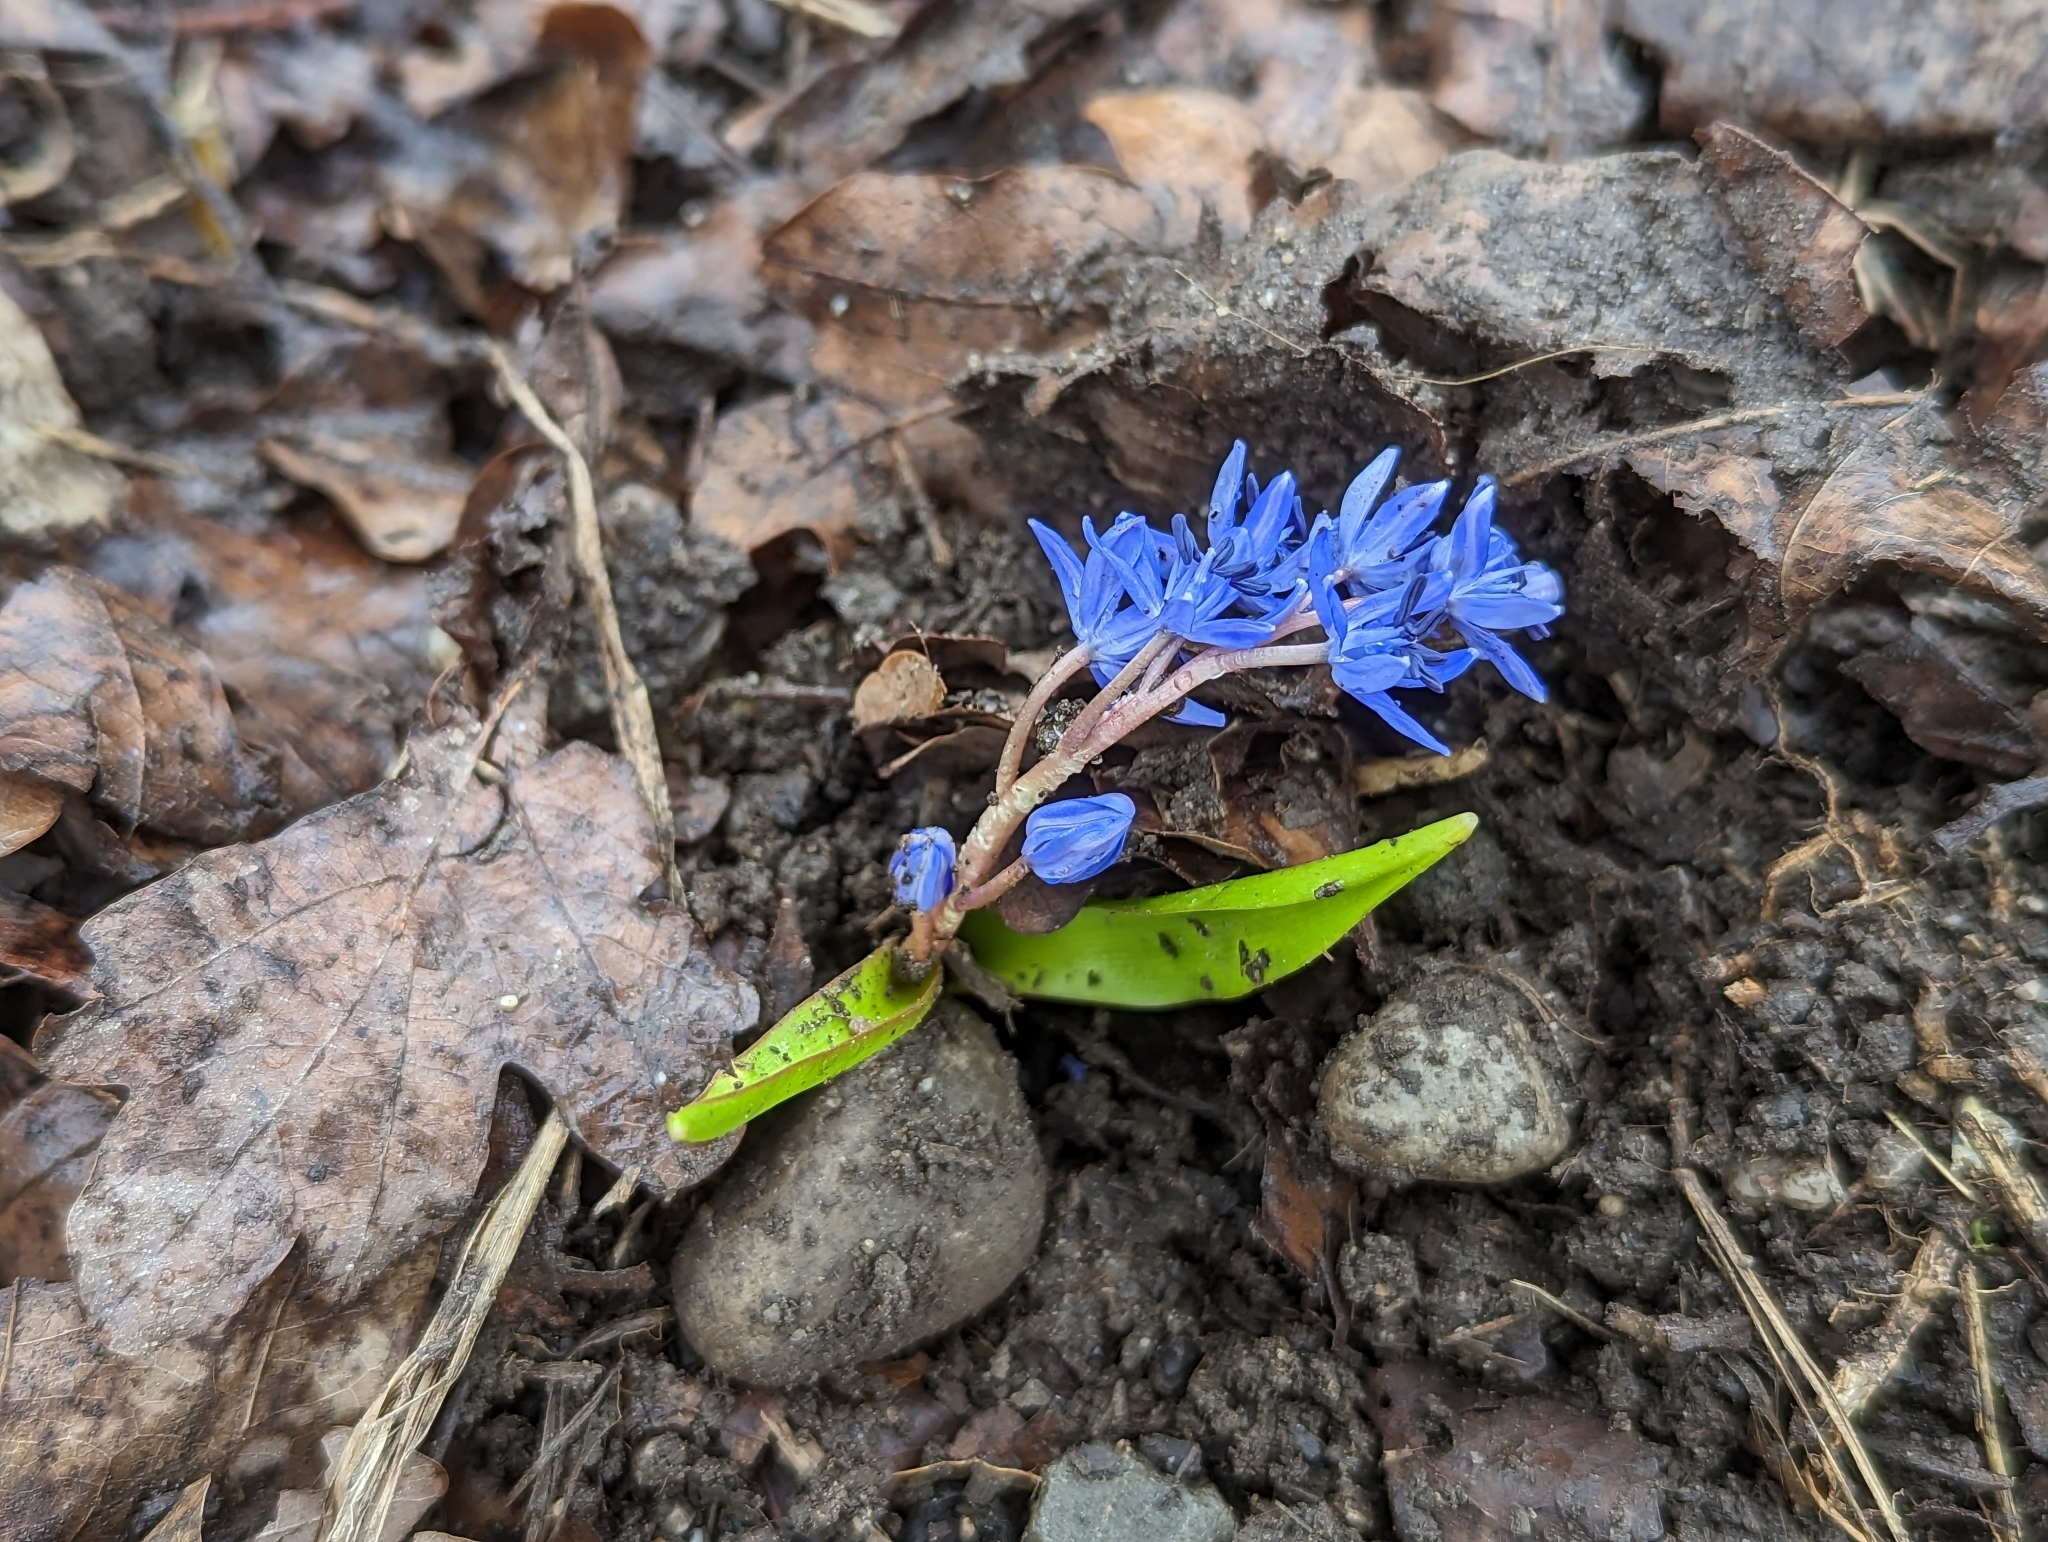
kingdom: Plantae
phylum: Tracheophyta
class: Liliopsida
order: Asparagales
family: Asparagaceae
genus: Scilla
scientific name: Scilla bifolia
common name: Alpine squill
